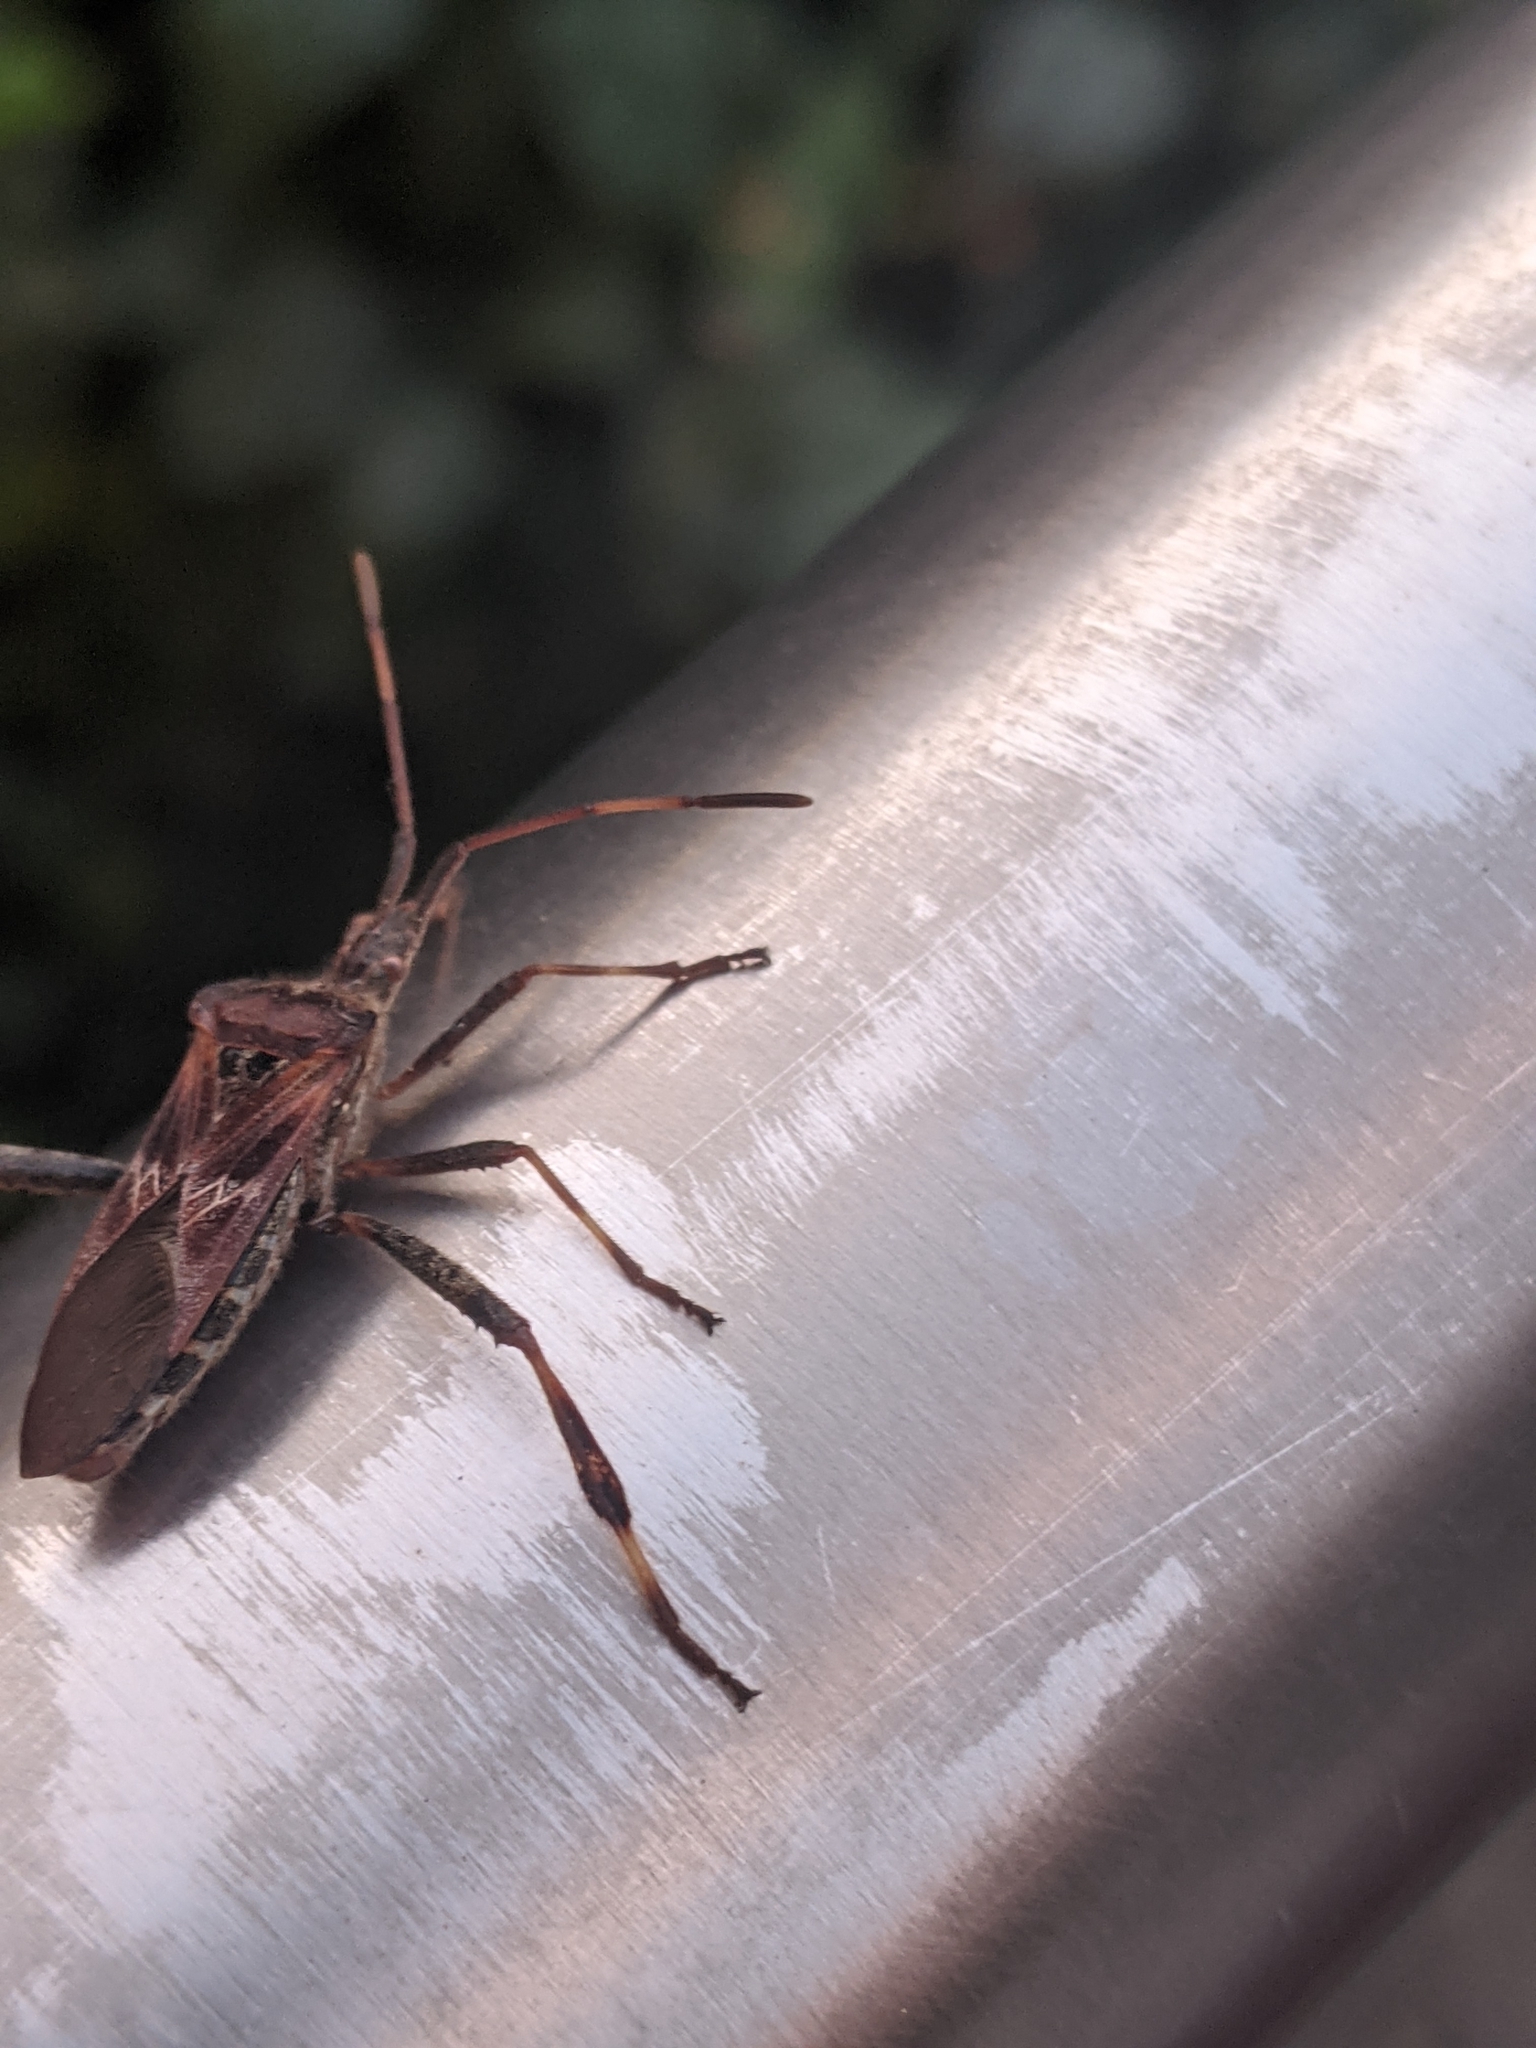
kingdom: Animalia
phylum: Arthropoda
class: Insecta
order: Hemiptera
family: Coreidae
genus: Leptoglossus
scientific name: Leptoglossus occidentalis
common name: Western conifer-seed bug
